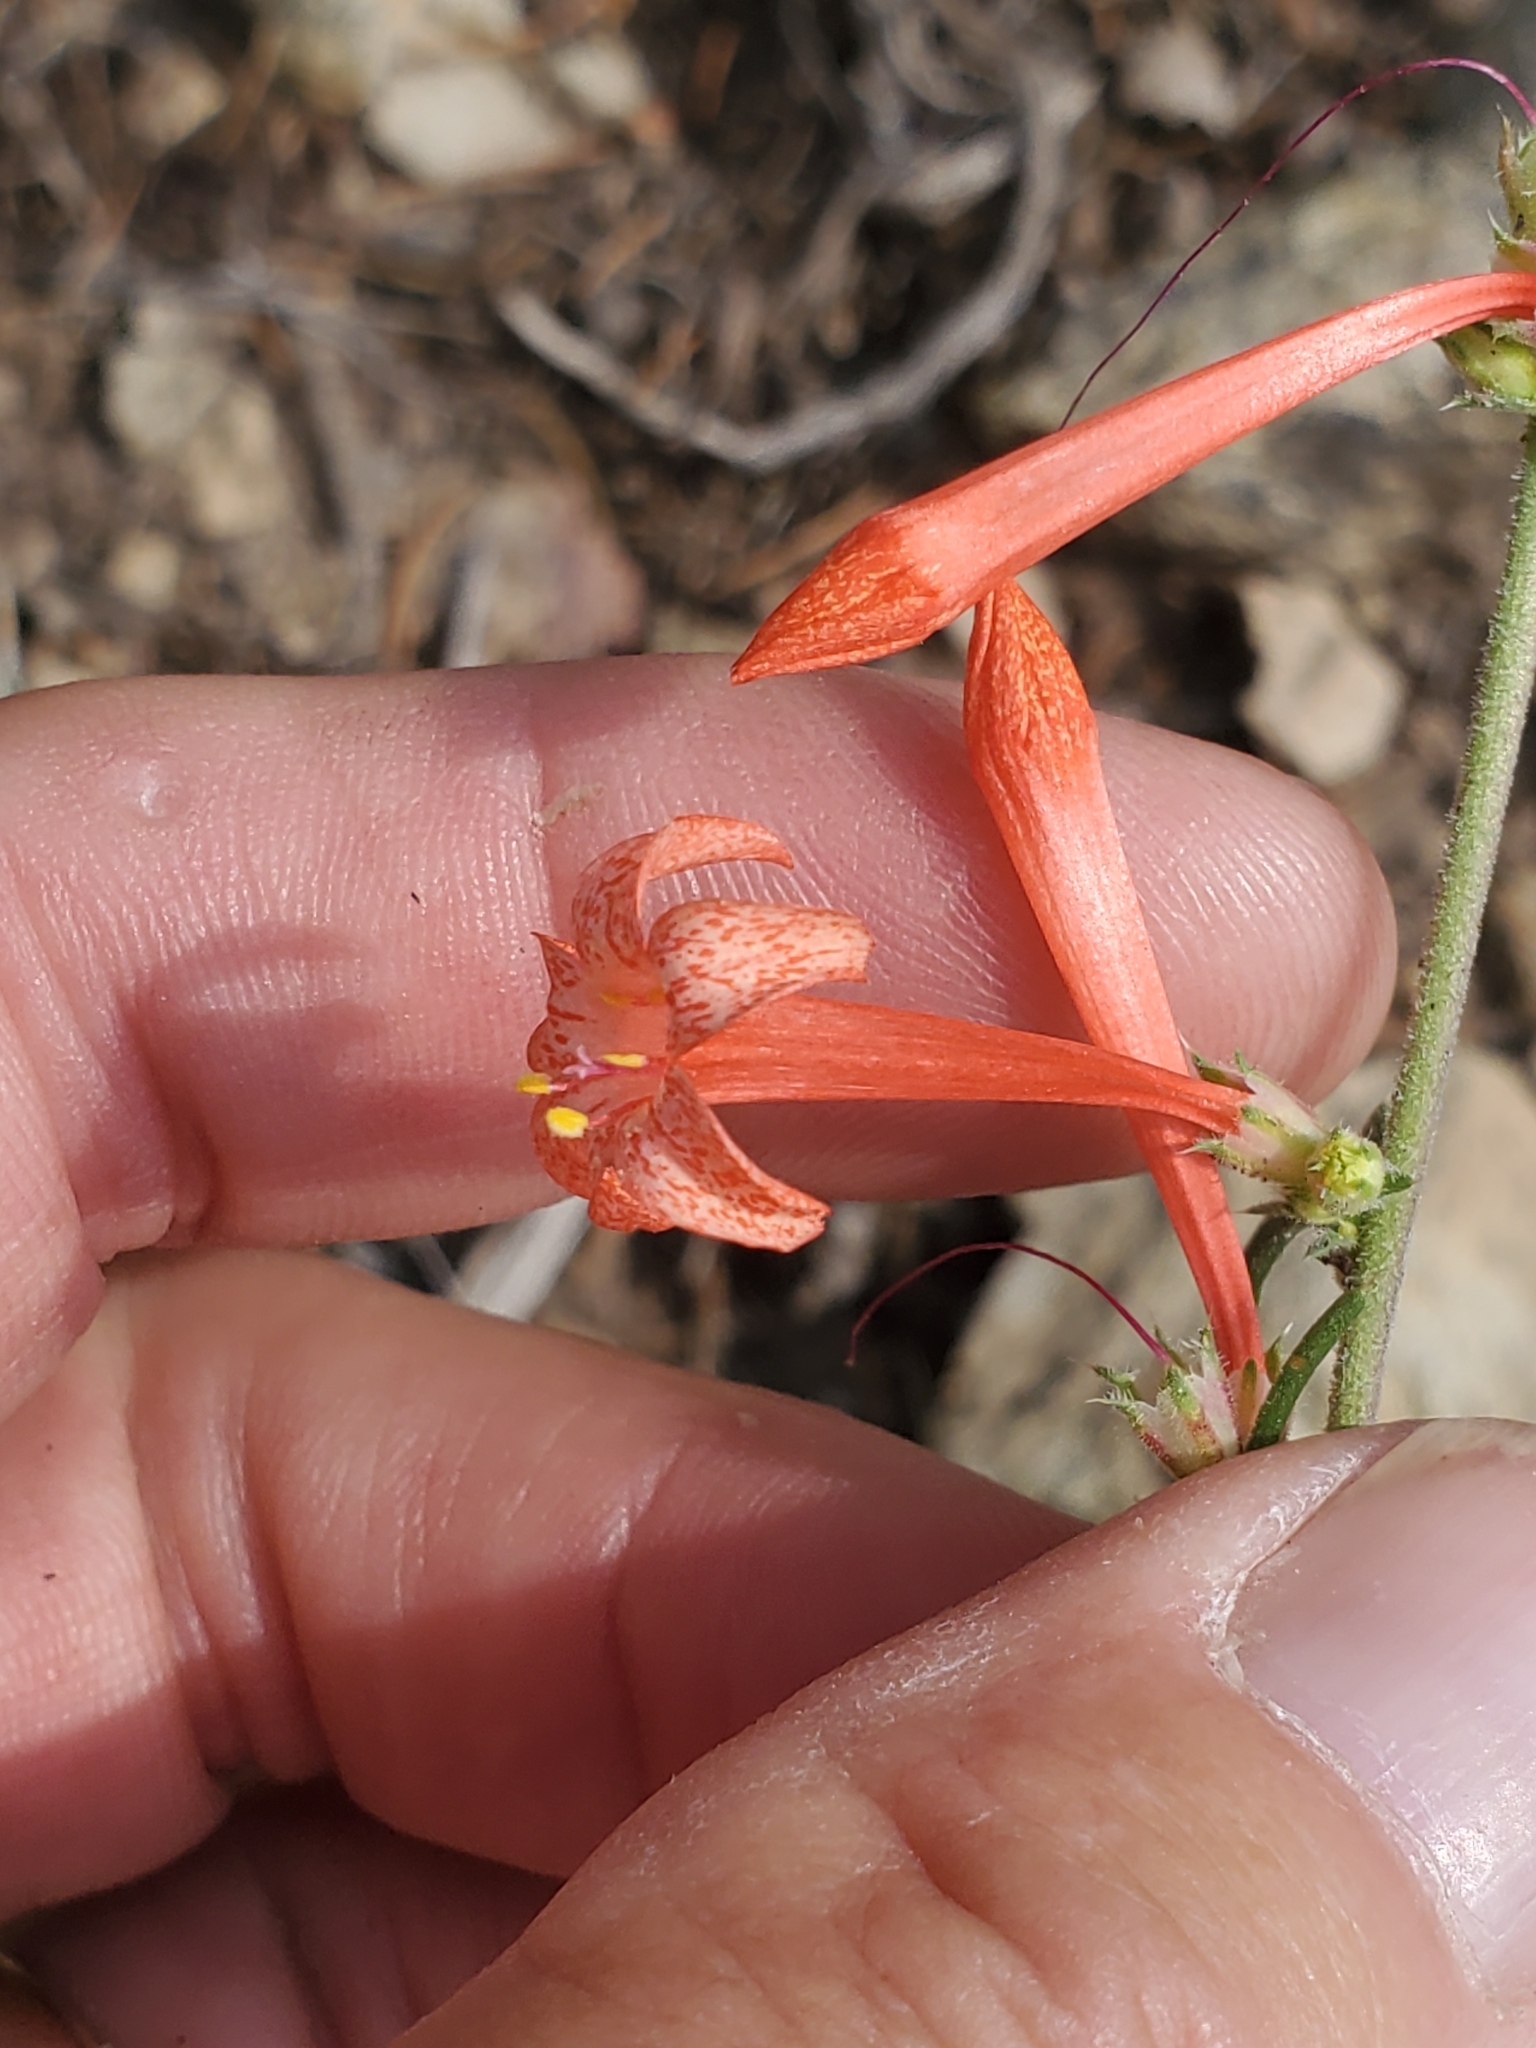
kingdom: Plantae
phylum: Tracheophyta
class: Magnoliopsida
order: Ericales
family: Polemoniaceae
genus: Ipomopsis
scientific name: Ipomopsis aggregata
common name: Scarlet gilia
